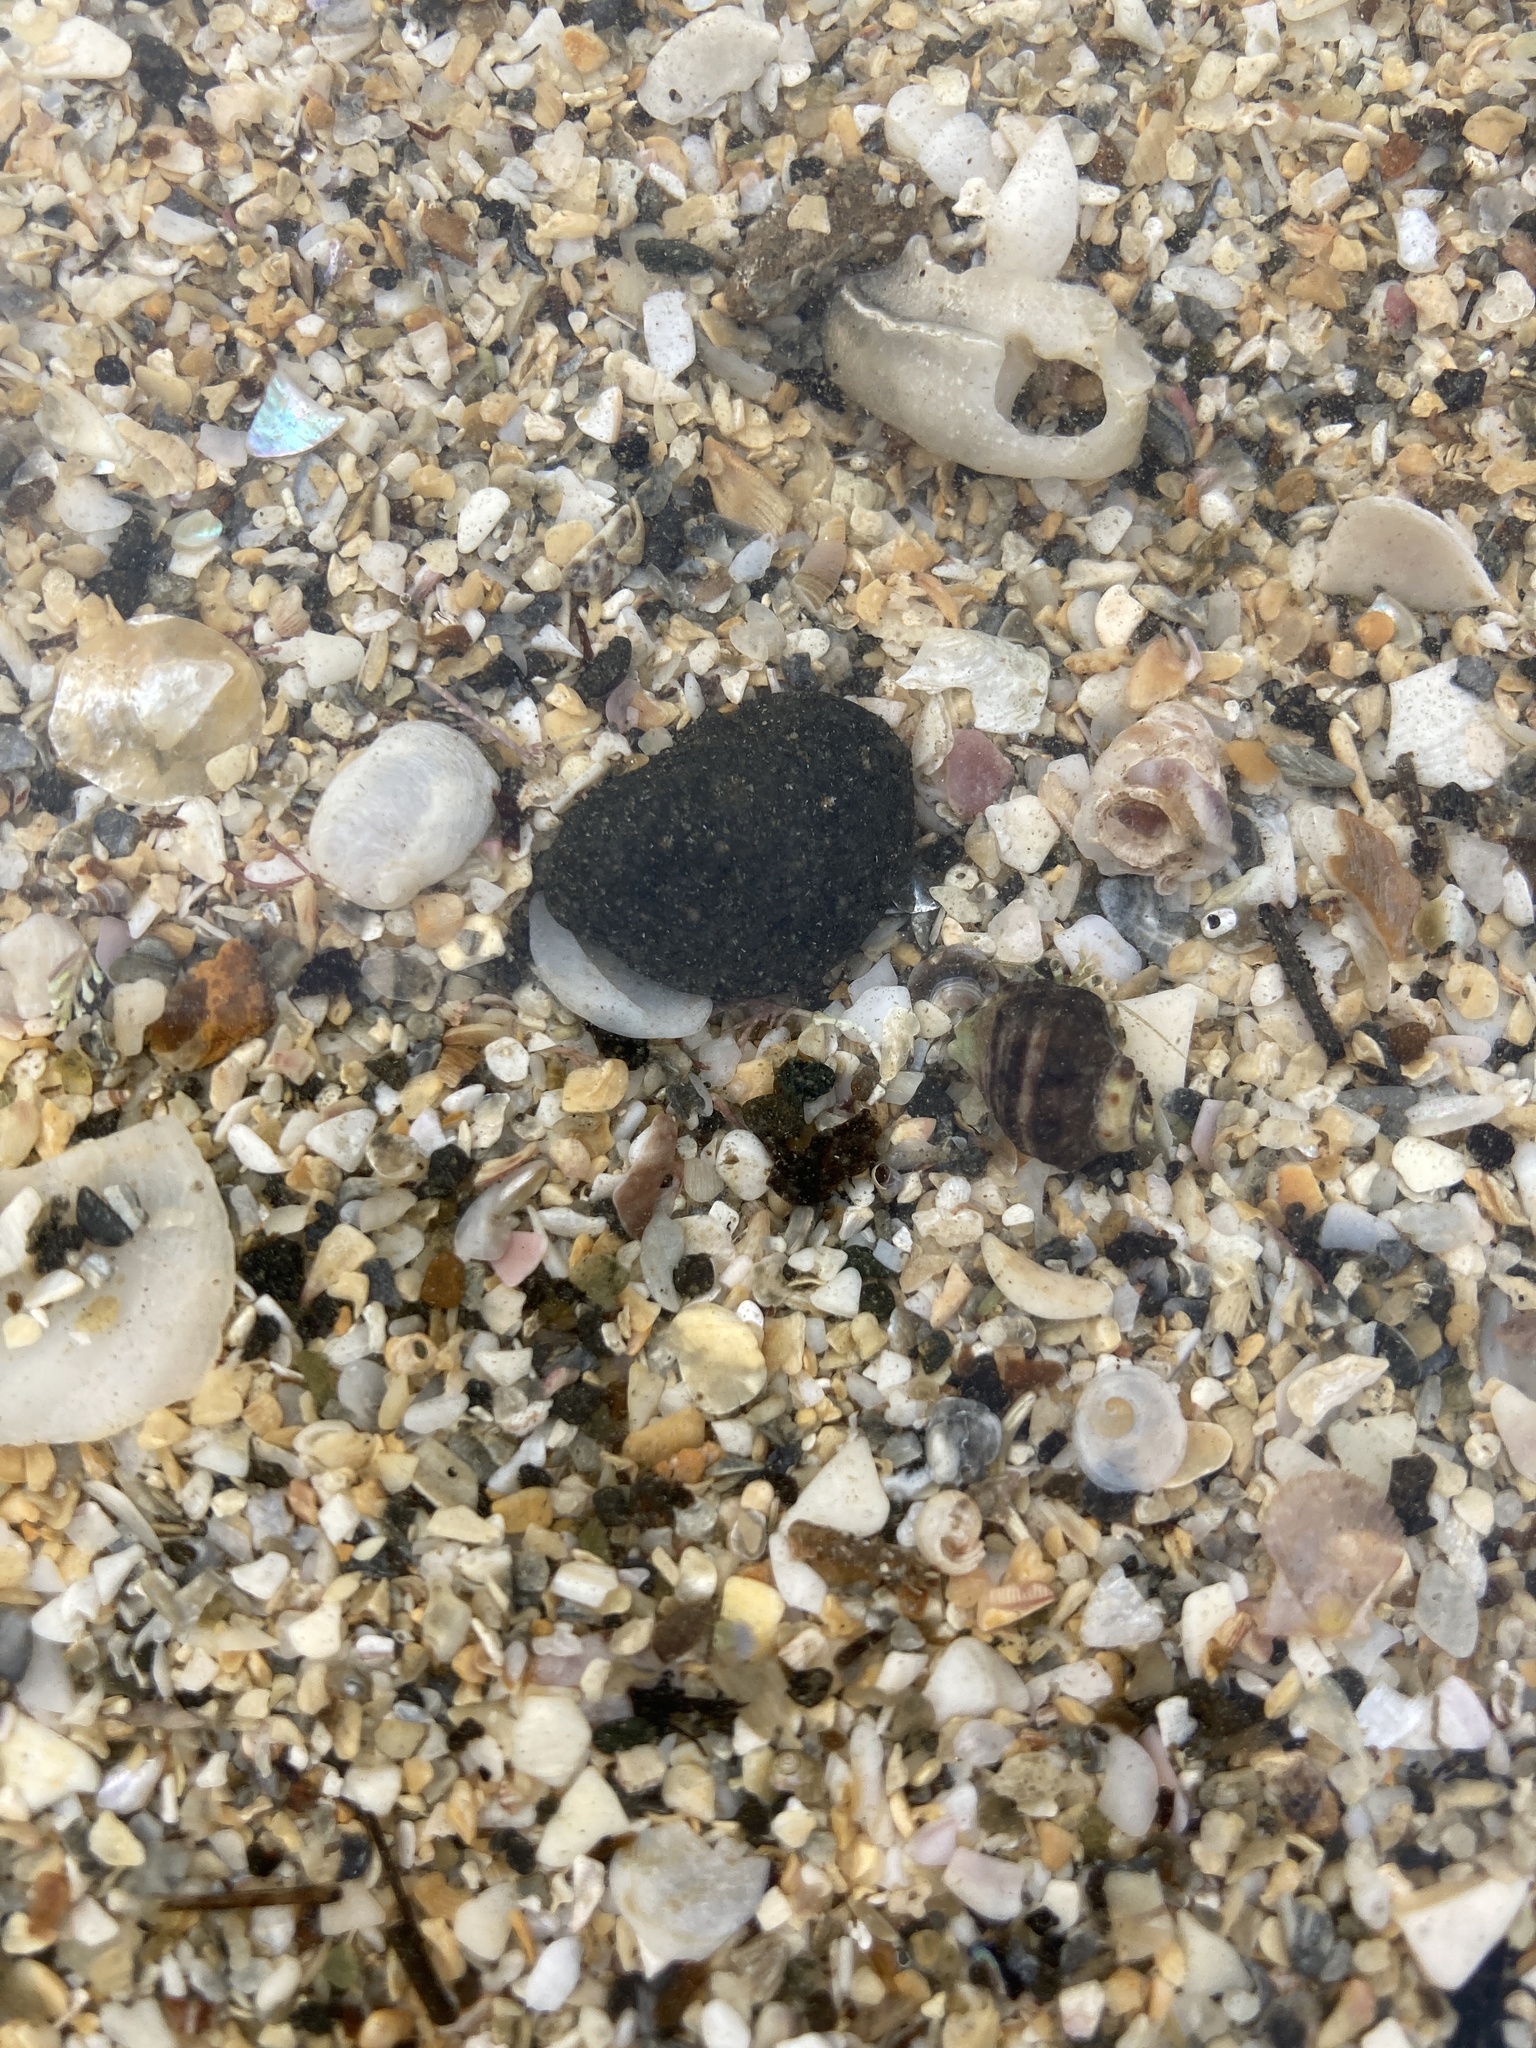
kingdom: Animalia
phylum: Arthropoda
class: Malacostraca
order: Decapoda
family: Paguridae
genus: Pagurus
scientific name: Pagurus novizealandiae
